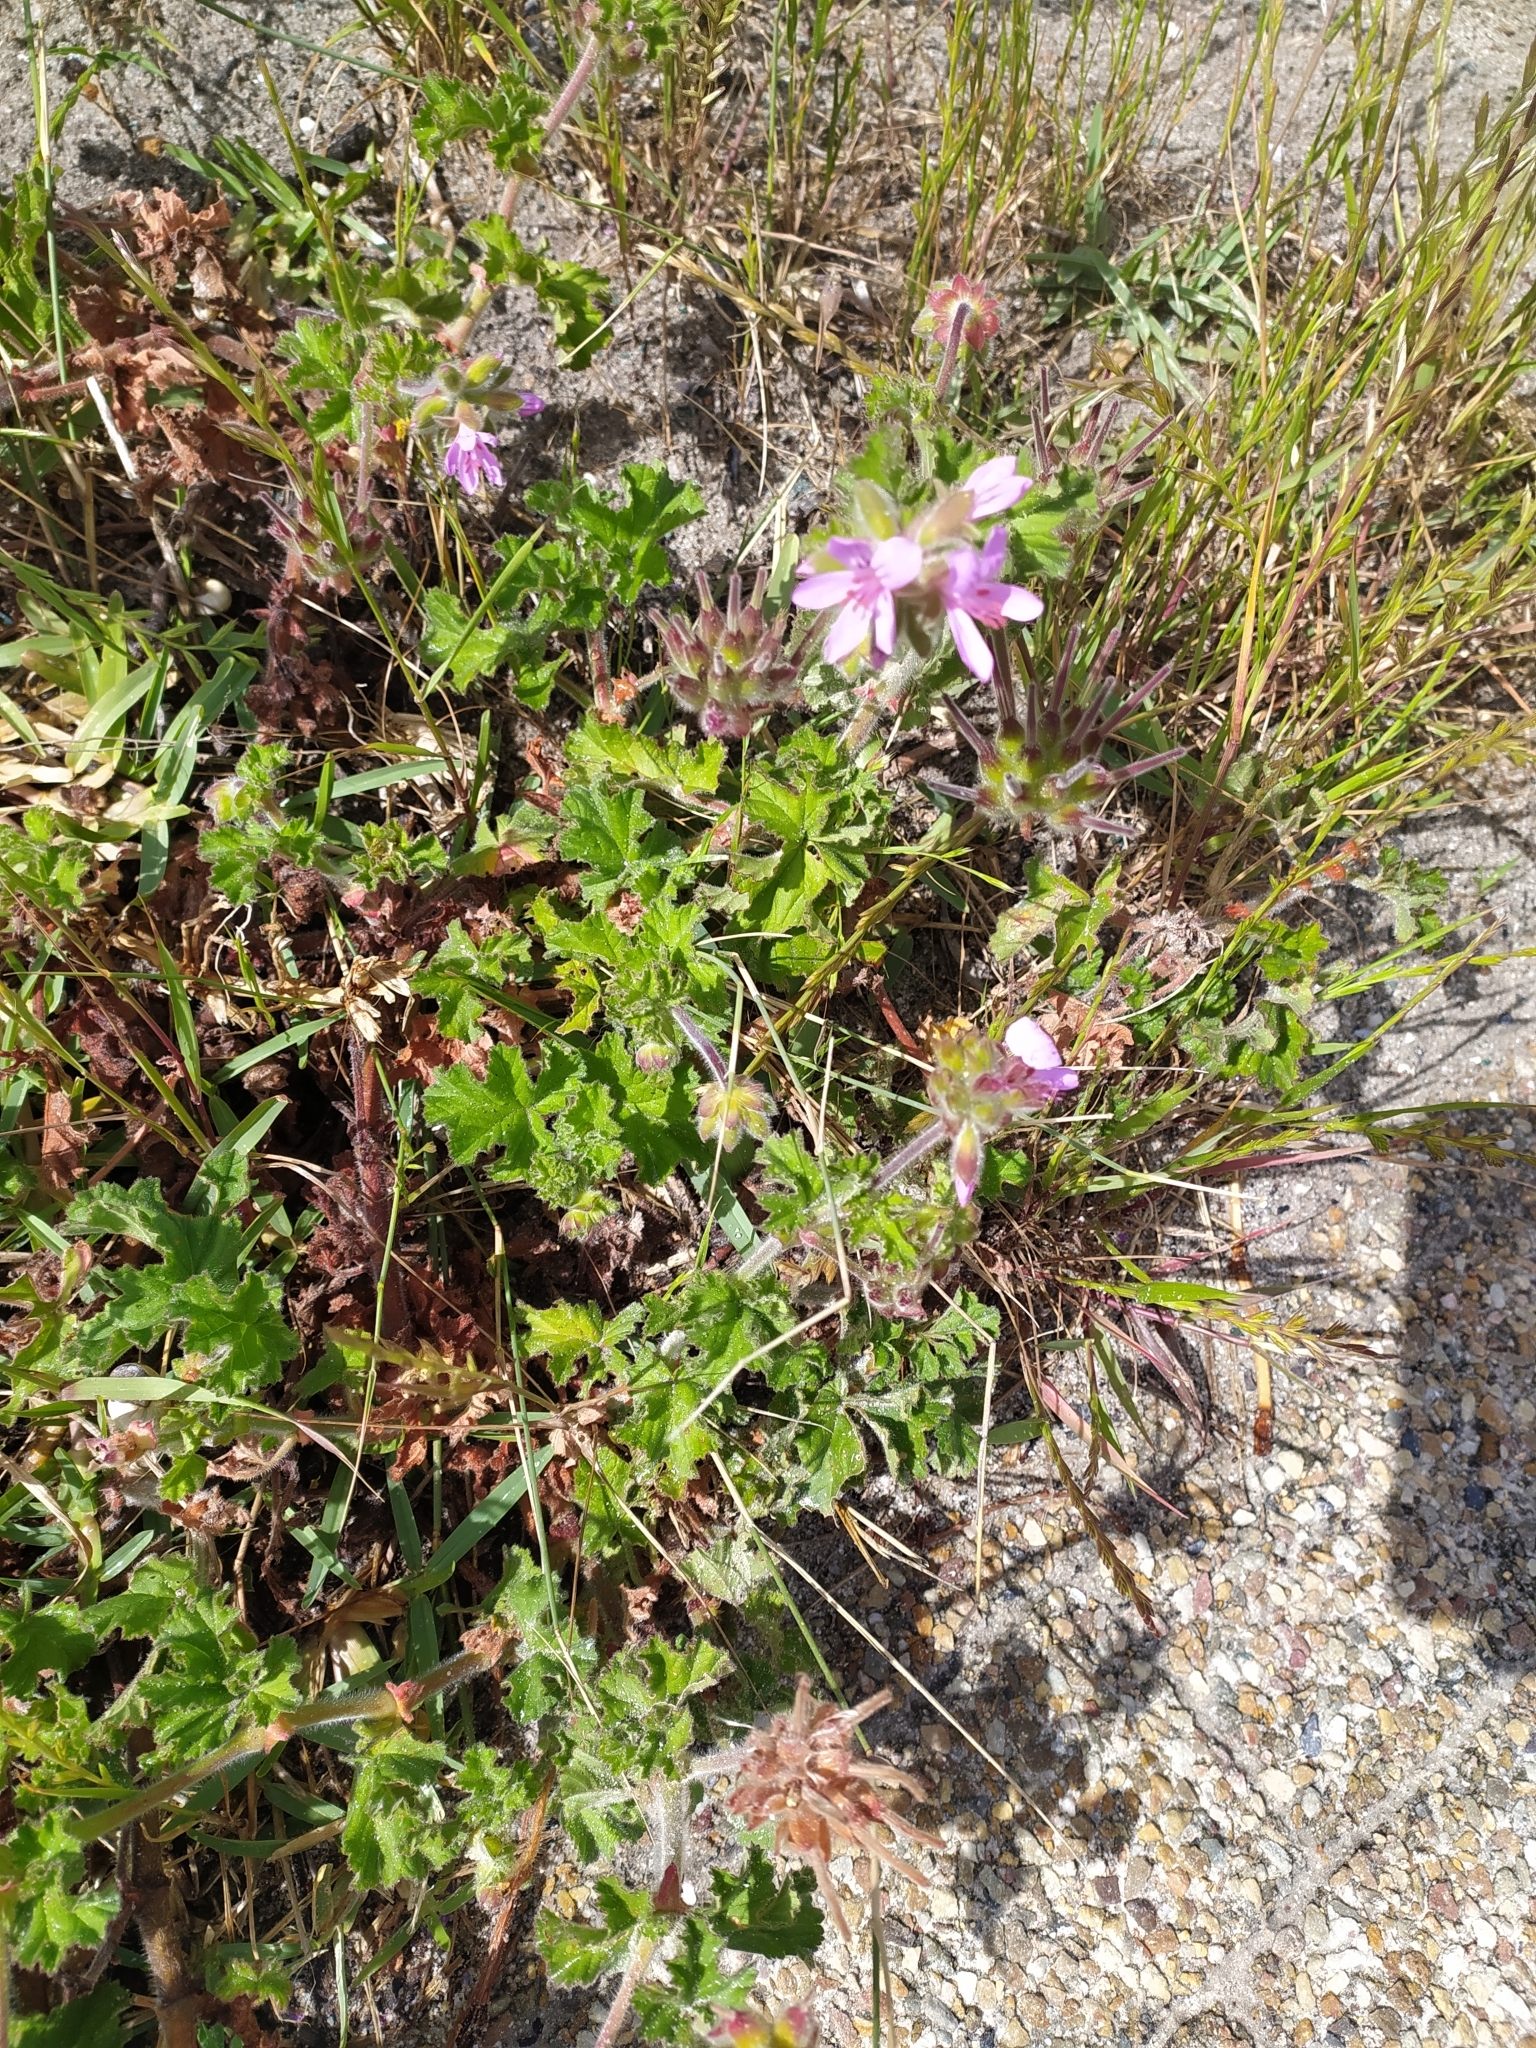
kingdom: Plantae
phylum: Tracheophyta
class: Magnoliopsida
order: Geraniales
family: Geraniaceae
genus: Pelargonium
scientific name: Pelargonium capitatum
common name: Rose scented geranium
